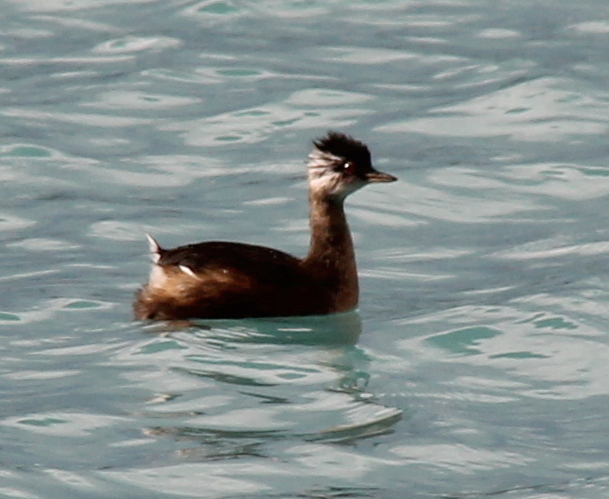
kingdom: Animalia
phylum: Chordata
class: Aves
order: Podicipediformes
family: Podicipedidae
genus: Rollandia
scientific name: Rollandia rolland
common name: White-tufted grebe
